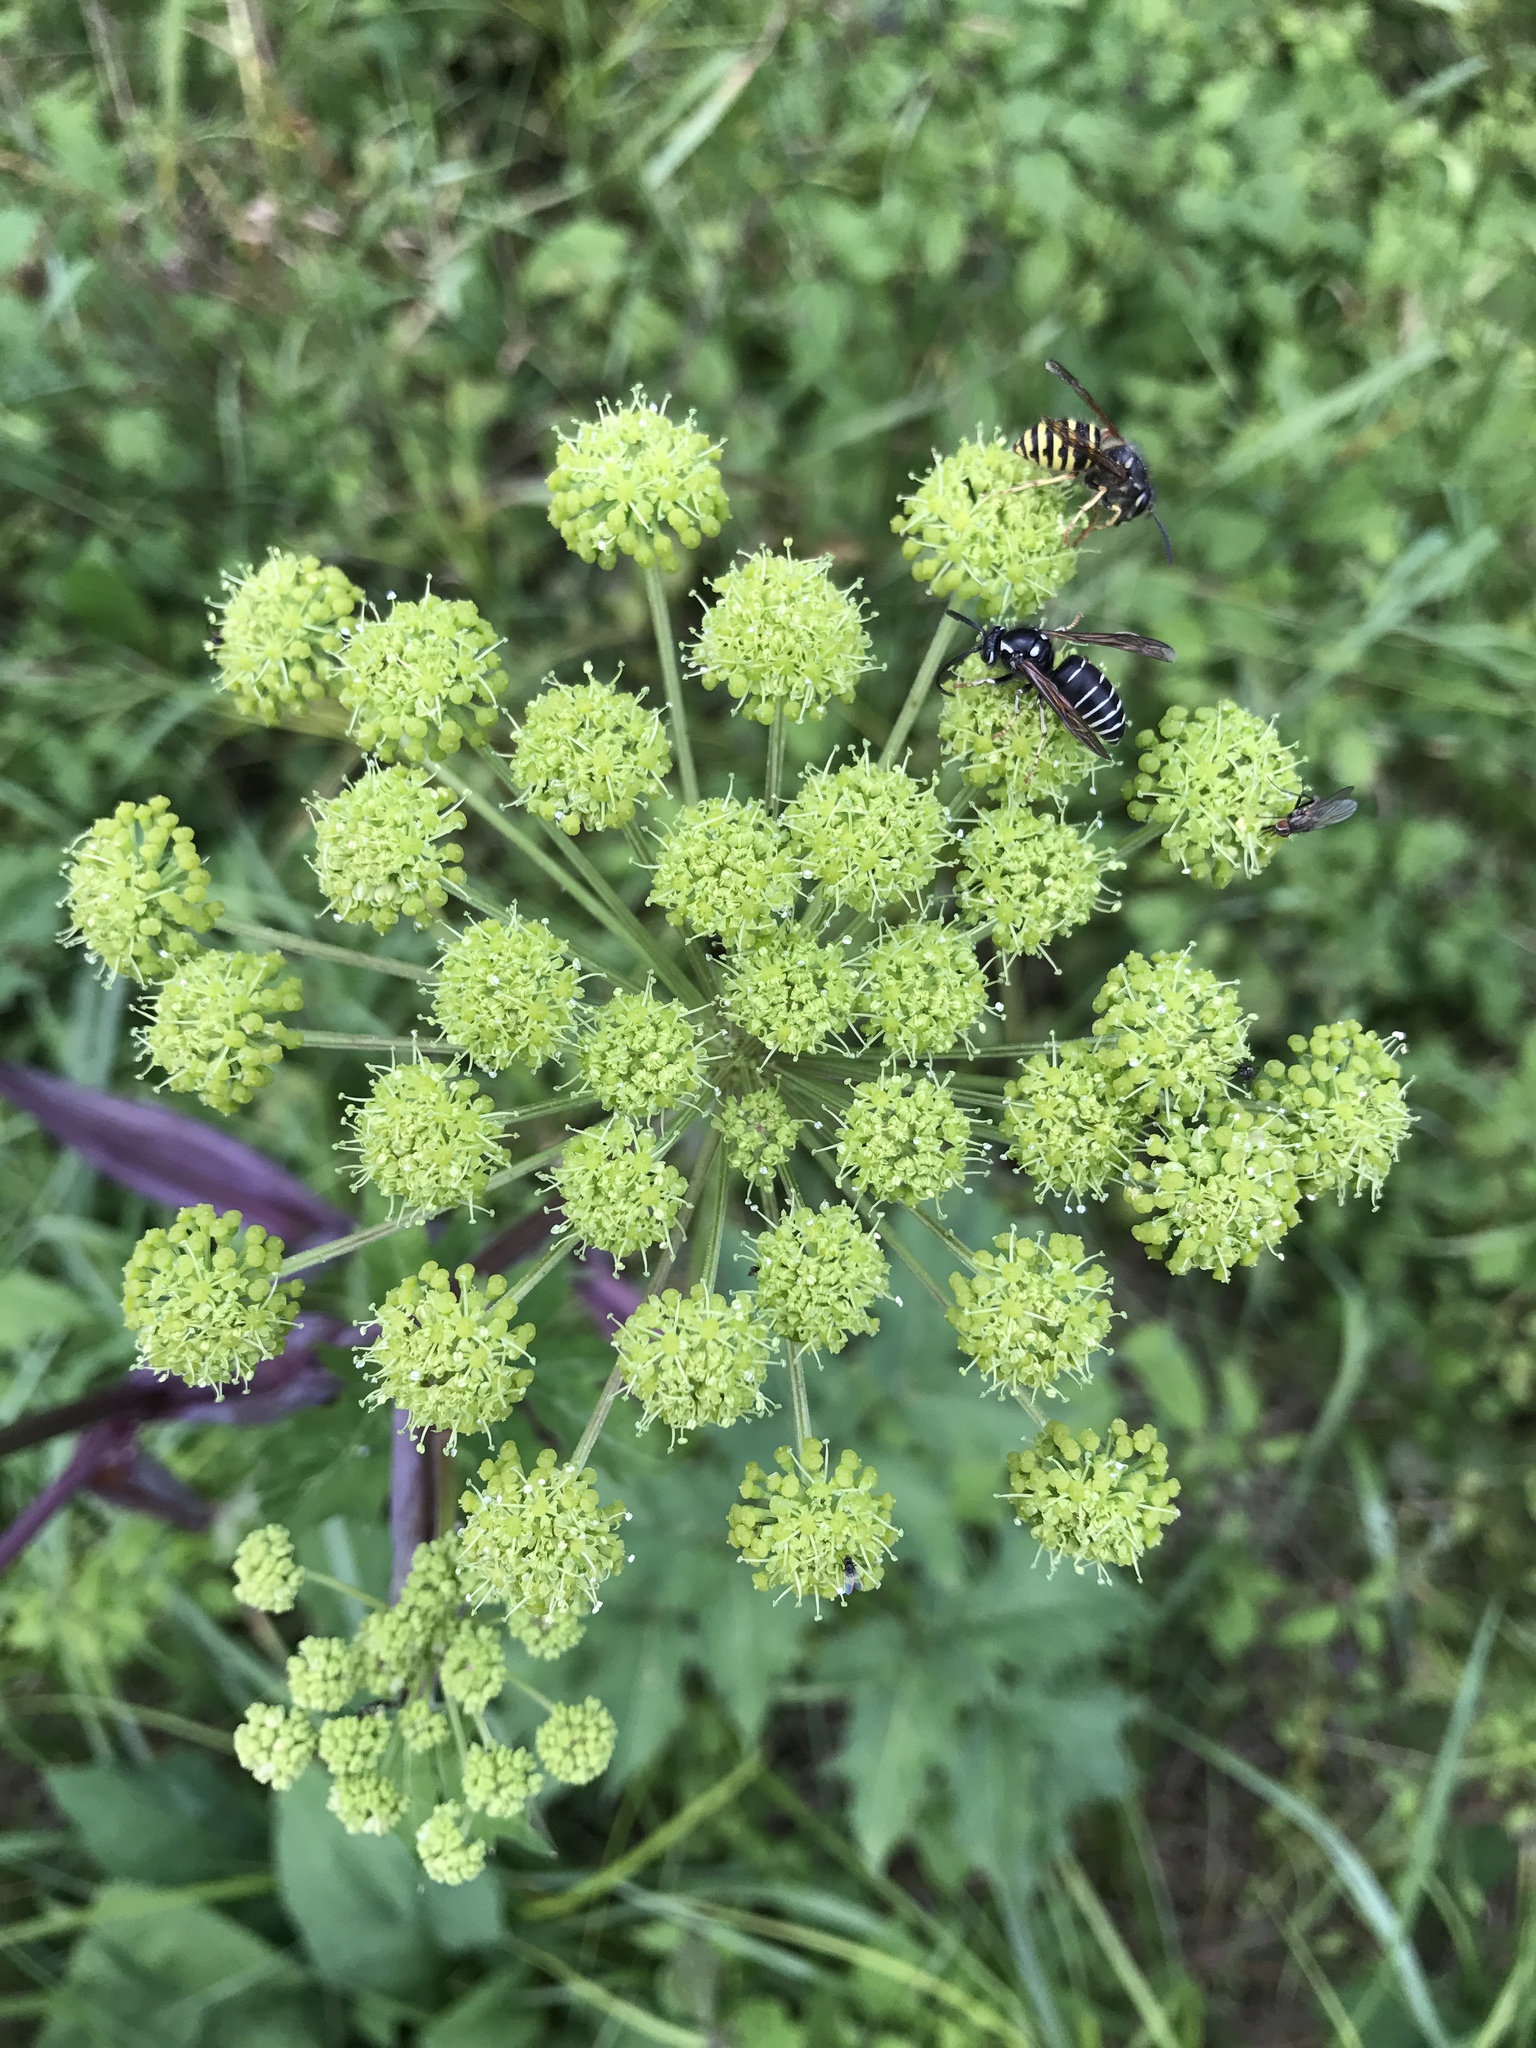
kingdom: Plantae
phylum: Tracheophyta
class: Magnoliopsida
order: Apiales
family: Apiaceae
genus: Angelica
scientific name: Angelica triquinata
